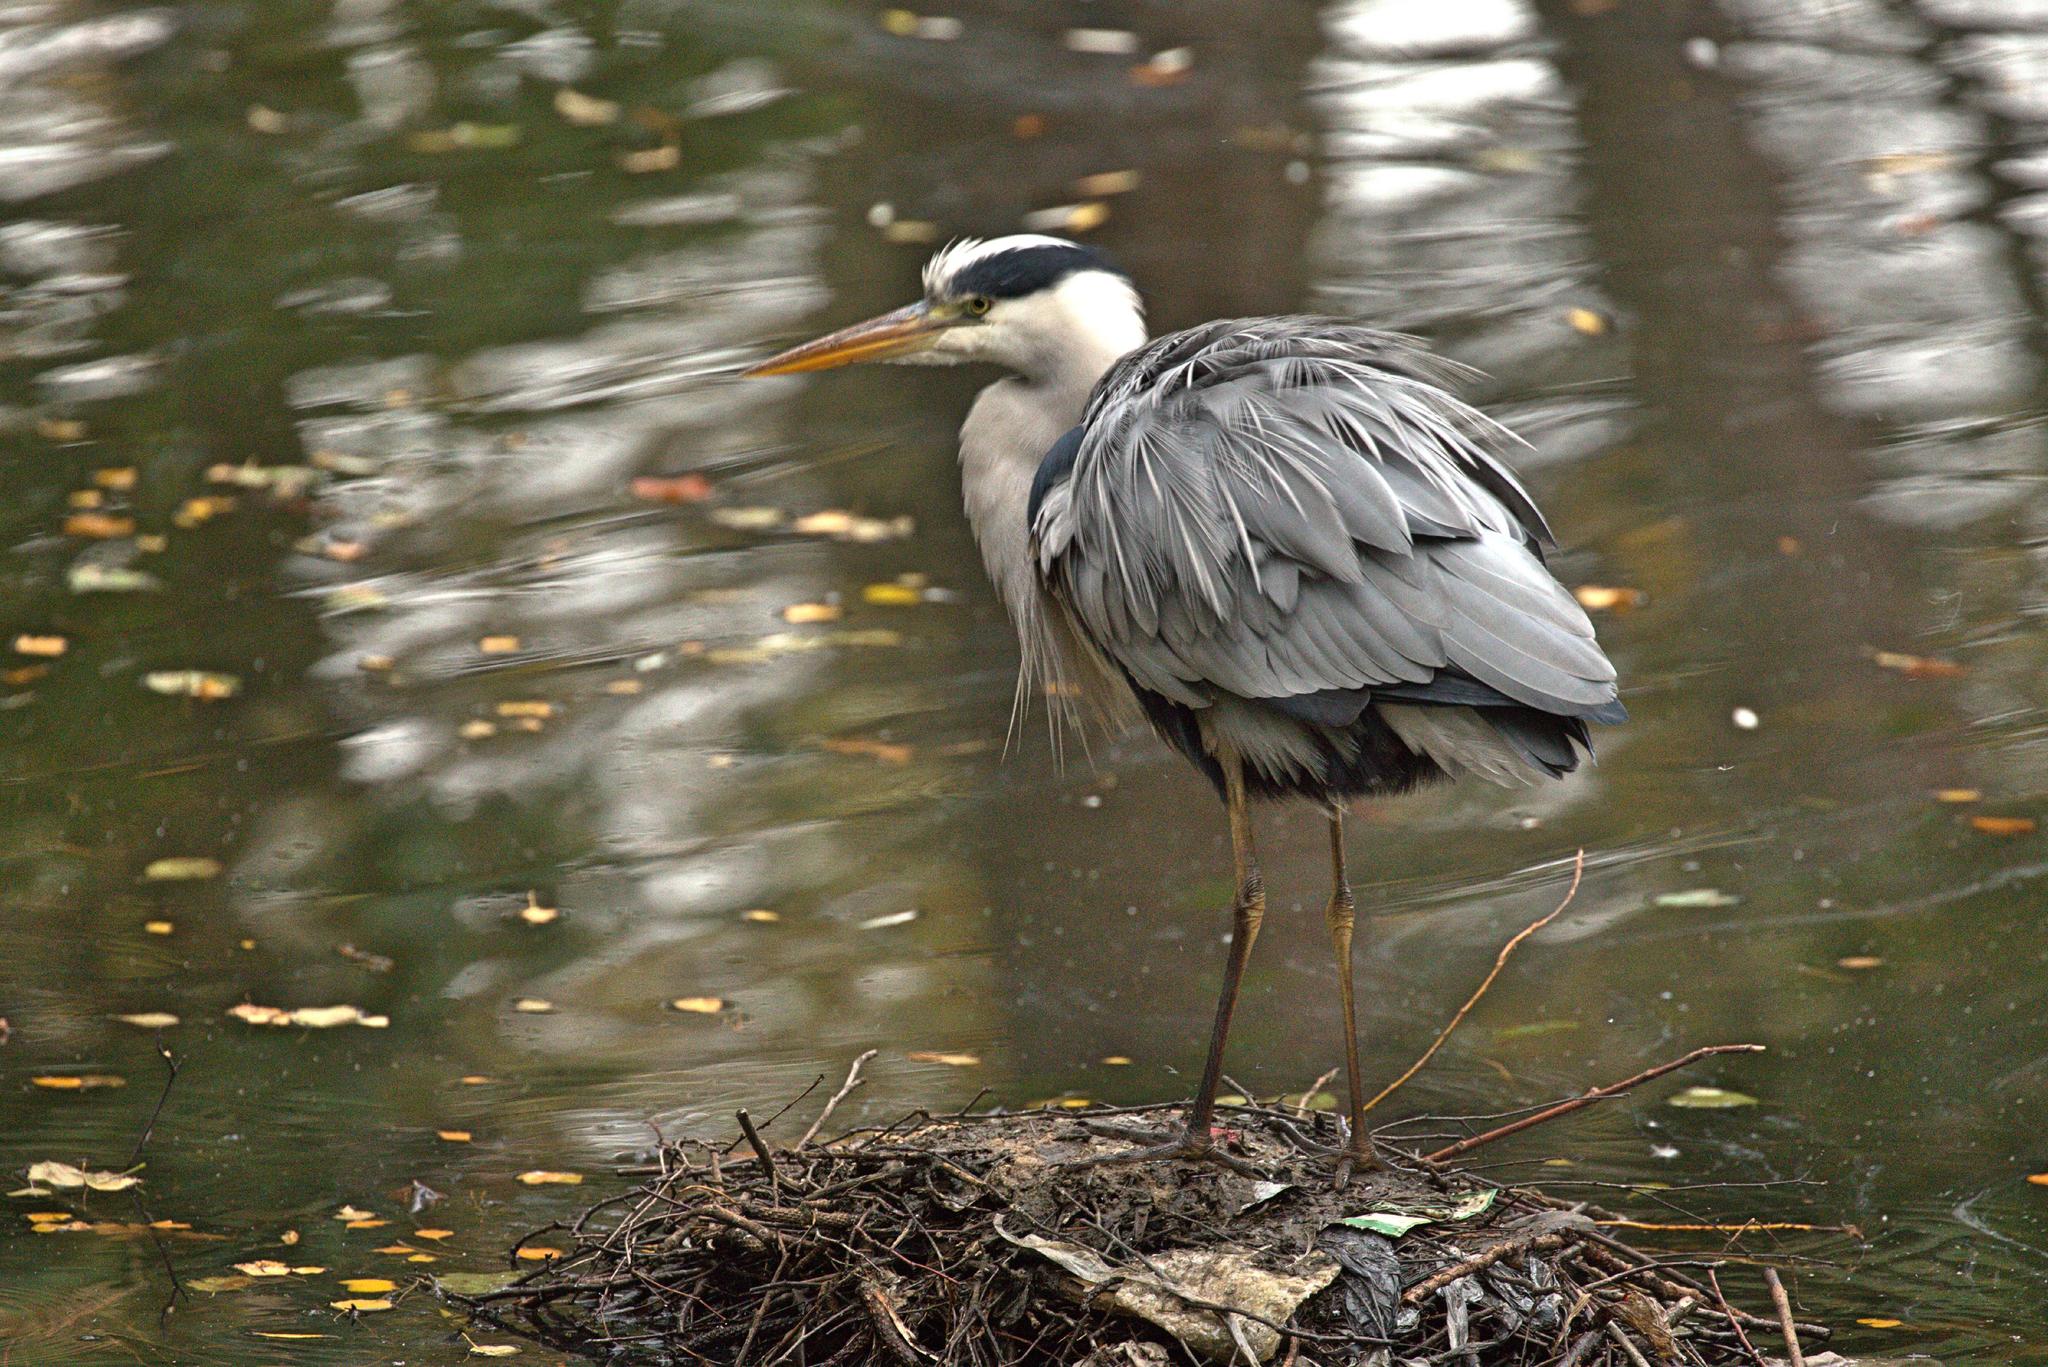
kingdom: Animalia
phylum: Chordata
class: Aves
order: Pelecaniformes
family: Ardeidae
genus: Ardea
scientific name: Ardea cinerea
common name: Grey heron
